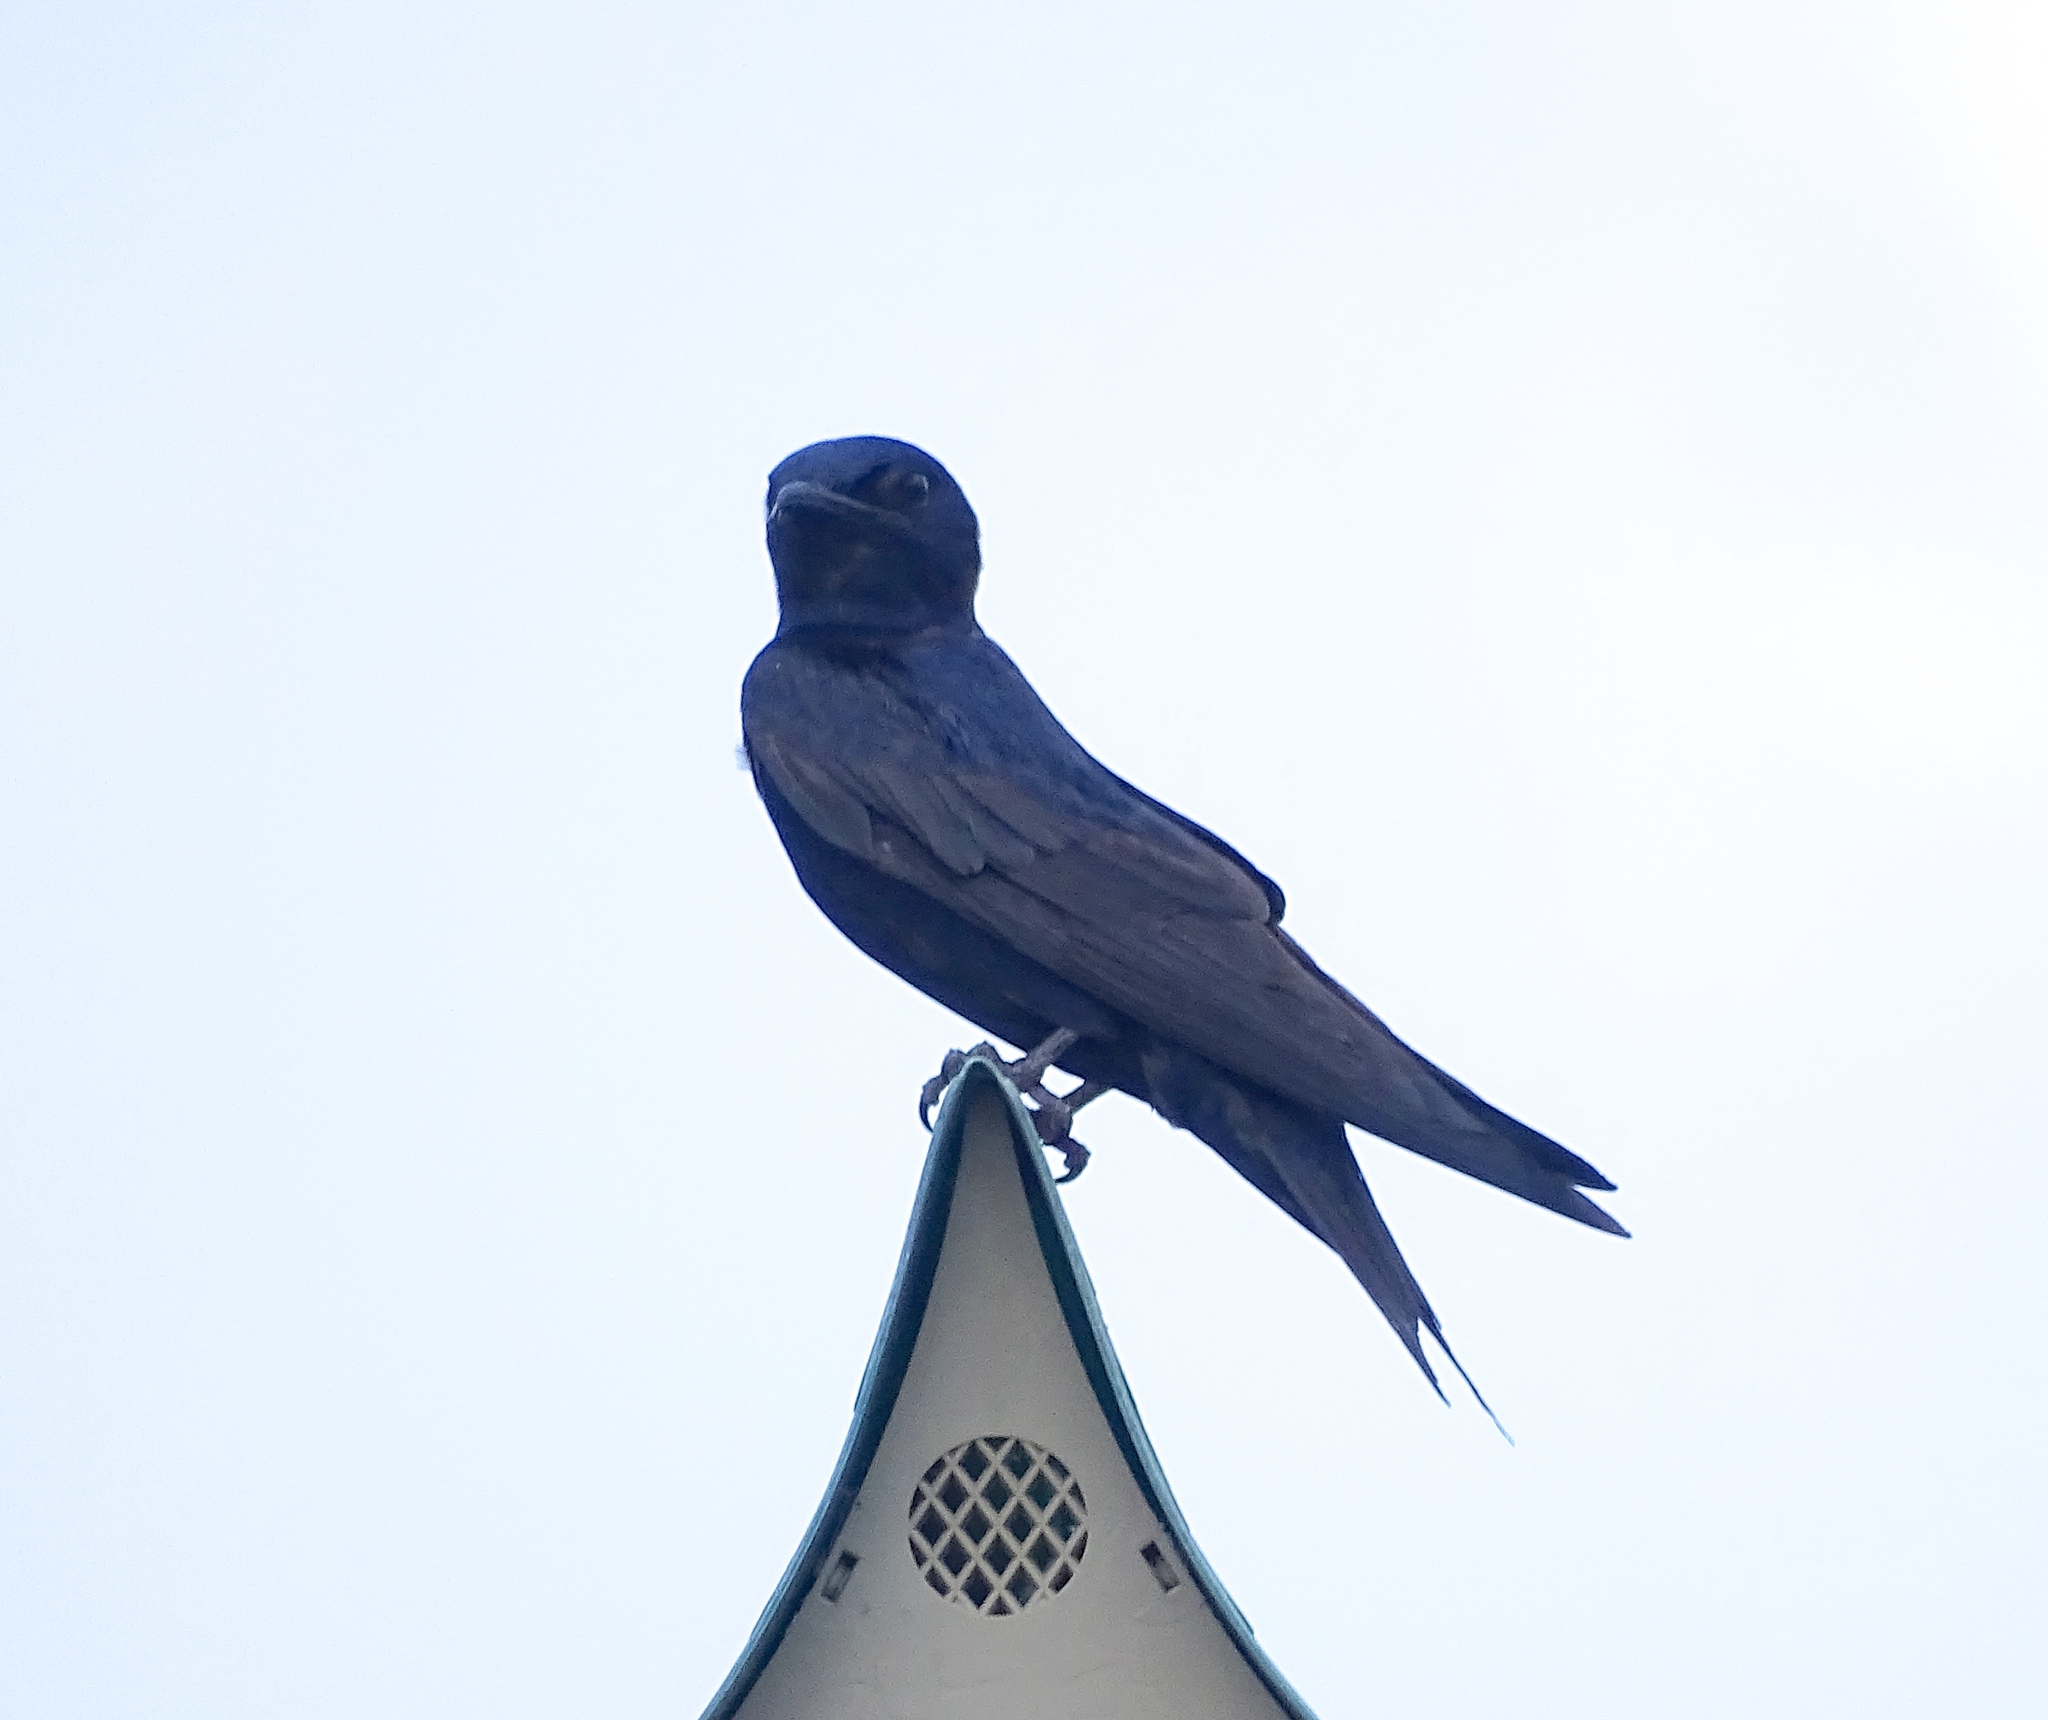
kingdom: Animalia
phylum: Chordata
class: Aves
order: Passeriformes
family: Hirundinidae
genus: Progne
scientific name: Progne subis
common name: Purple martin
